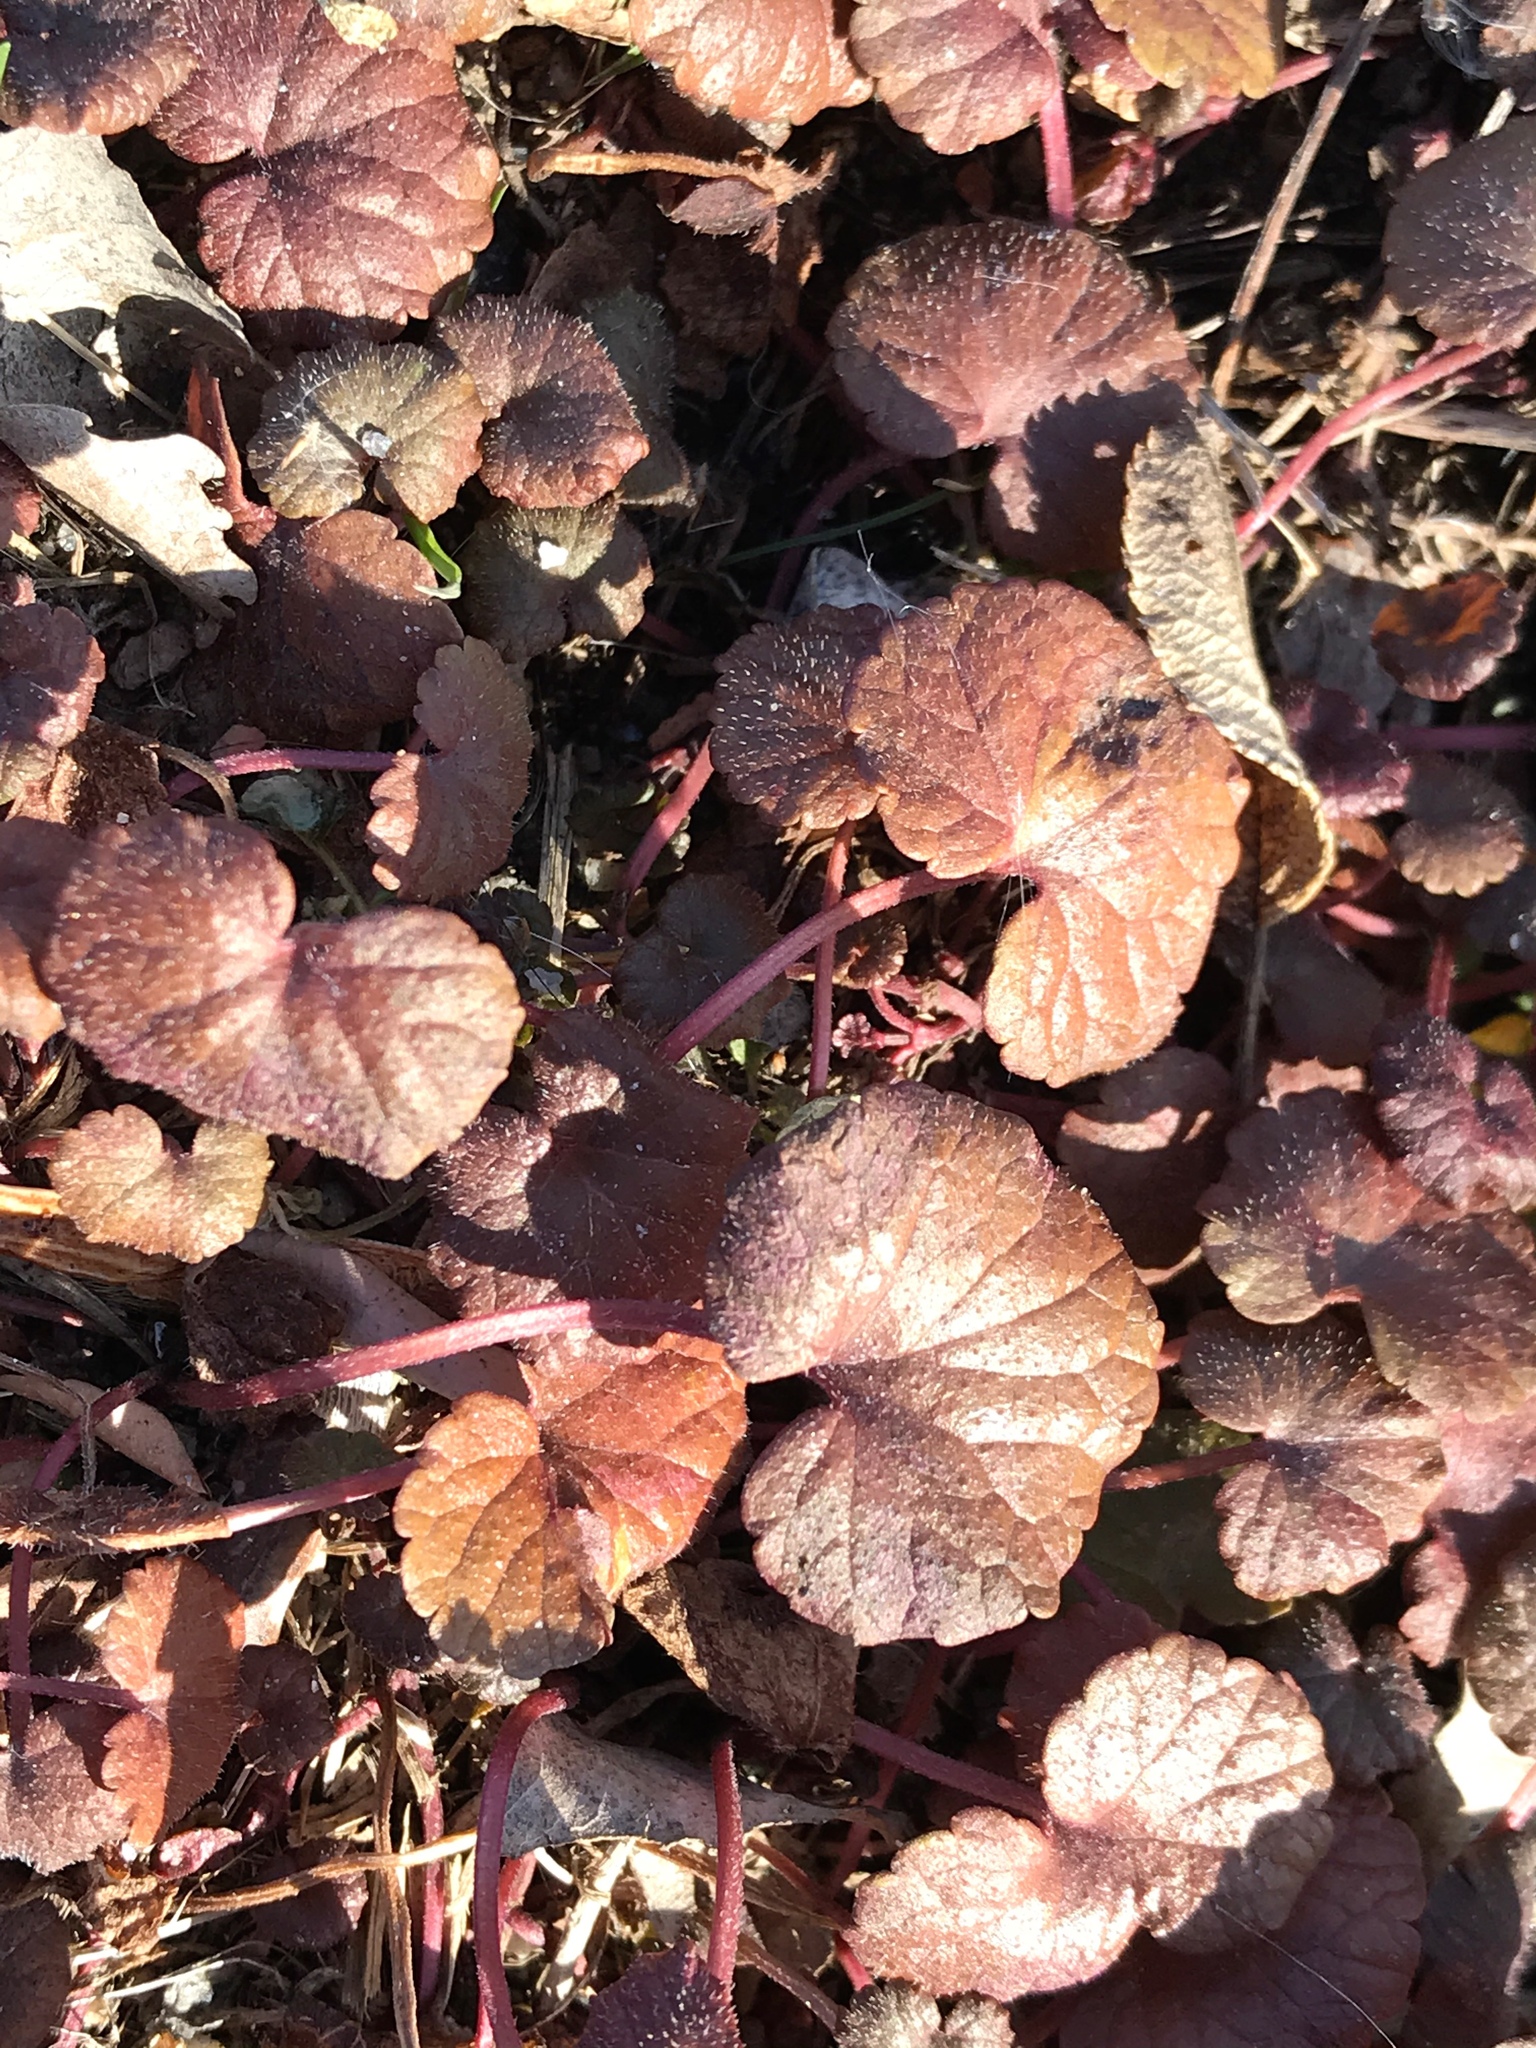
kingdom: Plantae
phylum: Tracheophyta
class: Magnoliopsida
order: Lamiales
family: Lamiaceae
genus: Glechoma
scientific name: Glechoma hederacea
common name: Ground ivy
